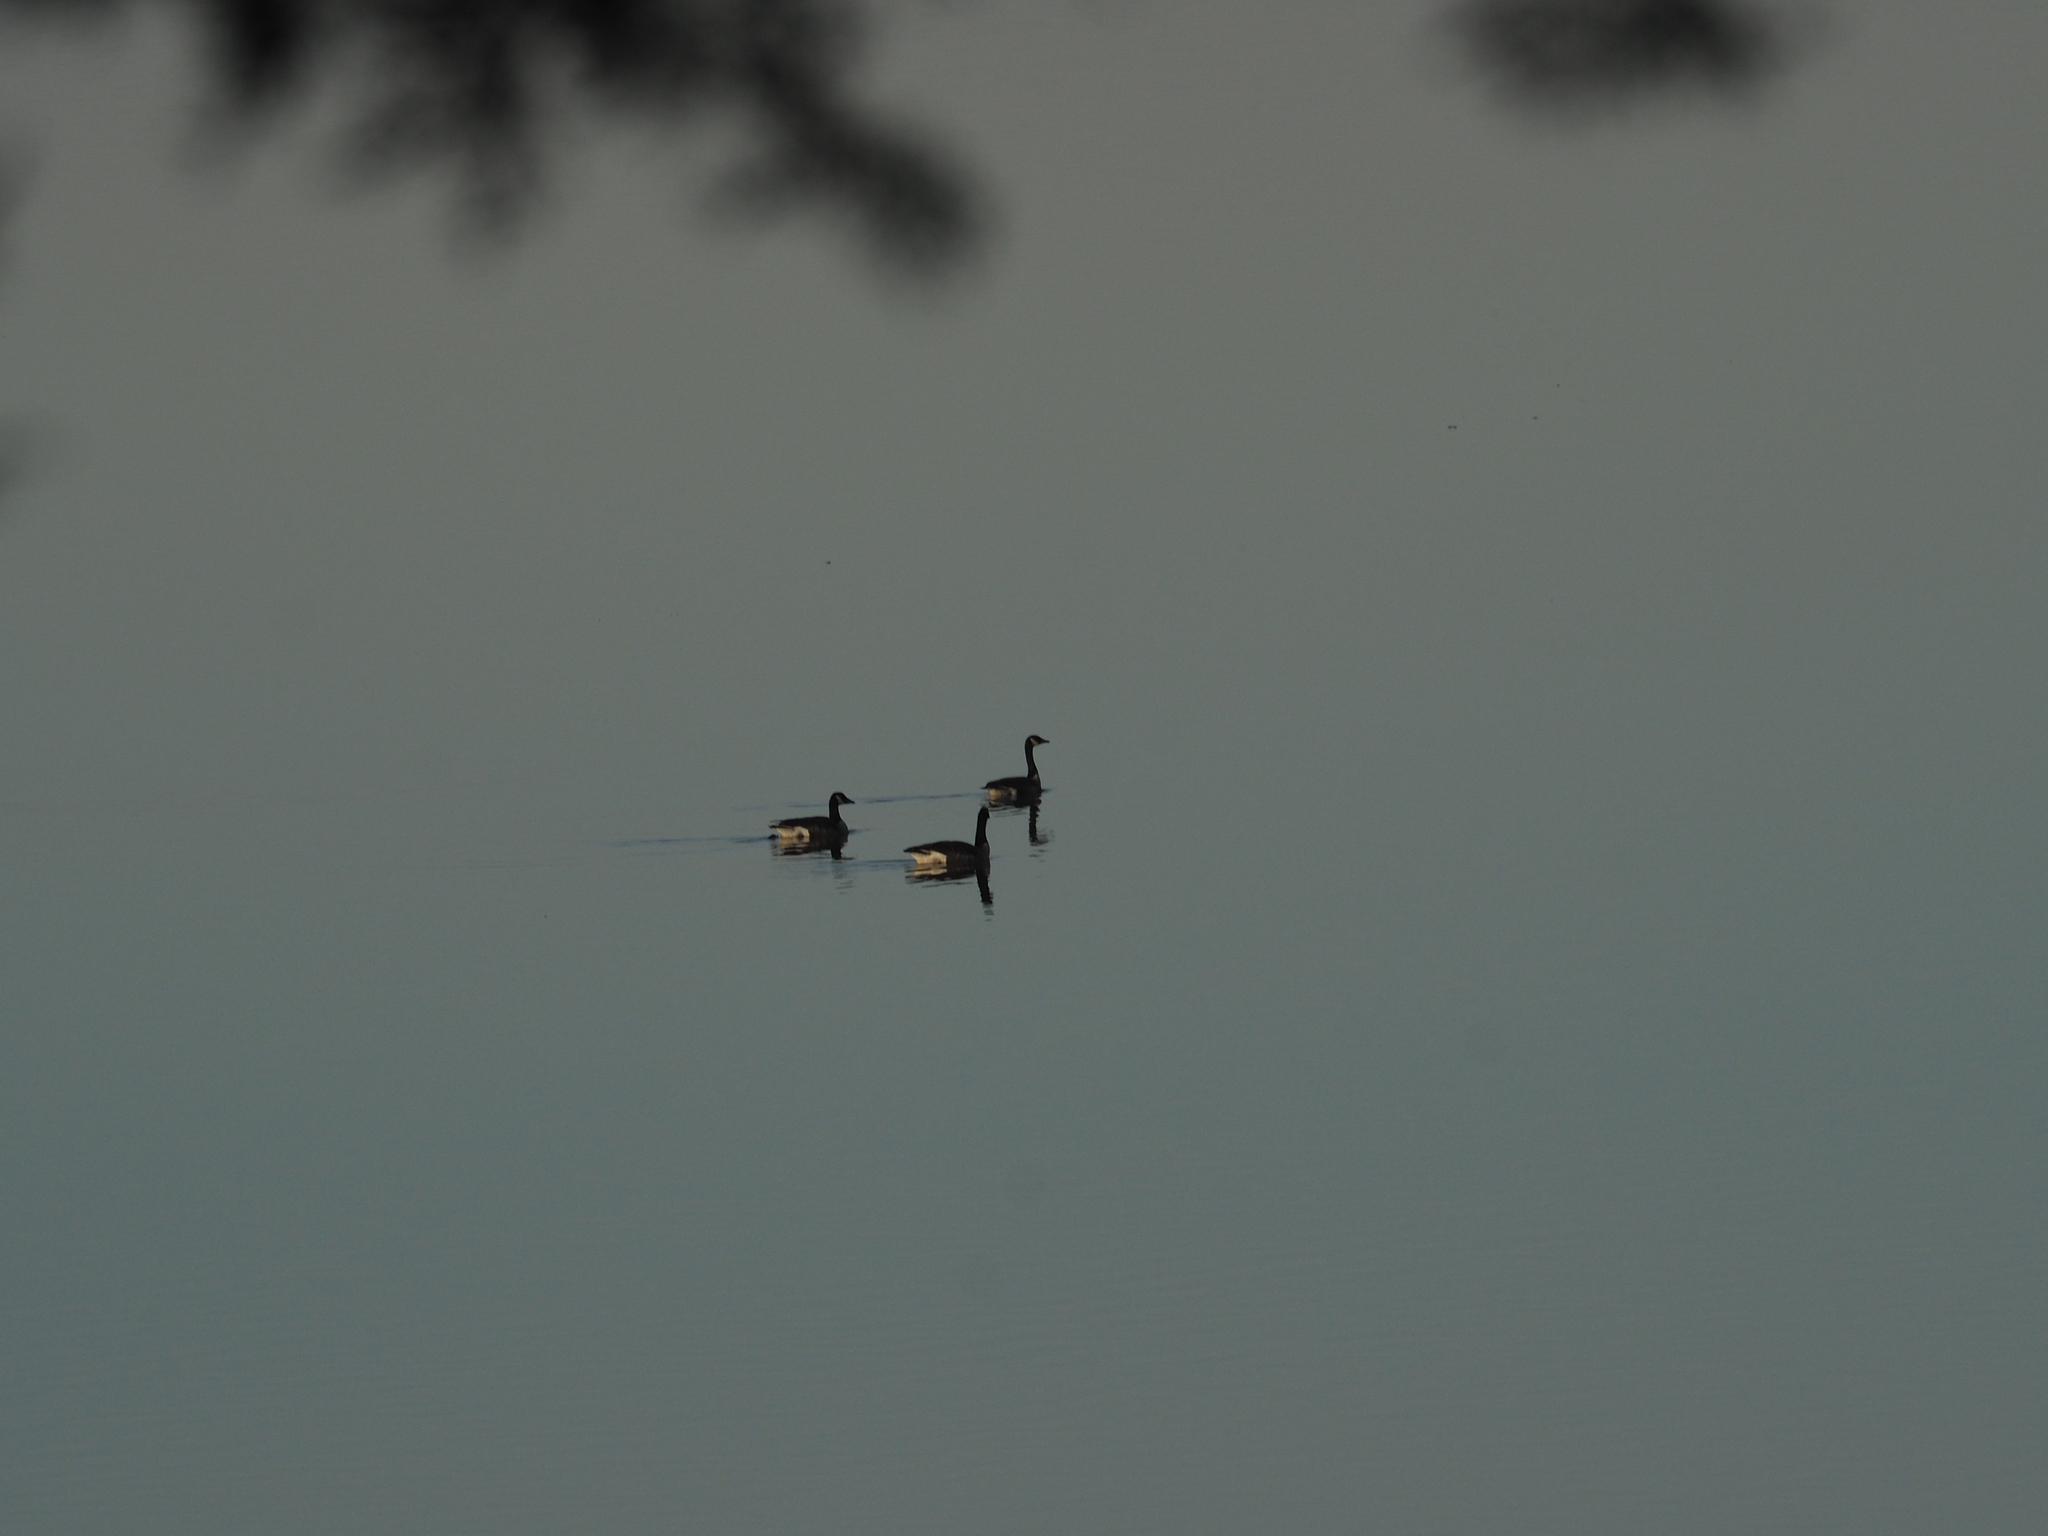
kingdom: Animalia
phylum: Chordata
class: Aves
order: Anseriformes
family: Anatidae
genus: Branta
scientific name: Branta canadensis
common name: Canada goose
